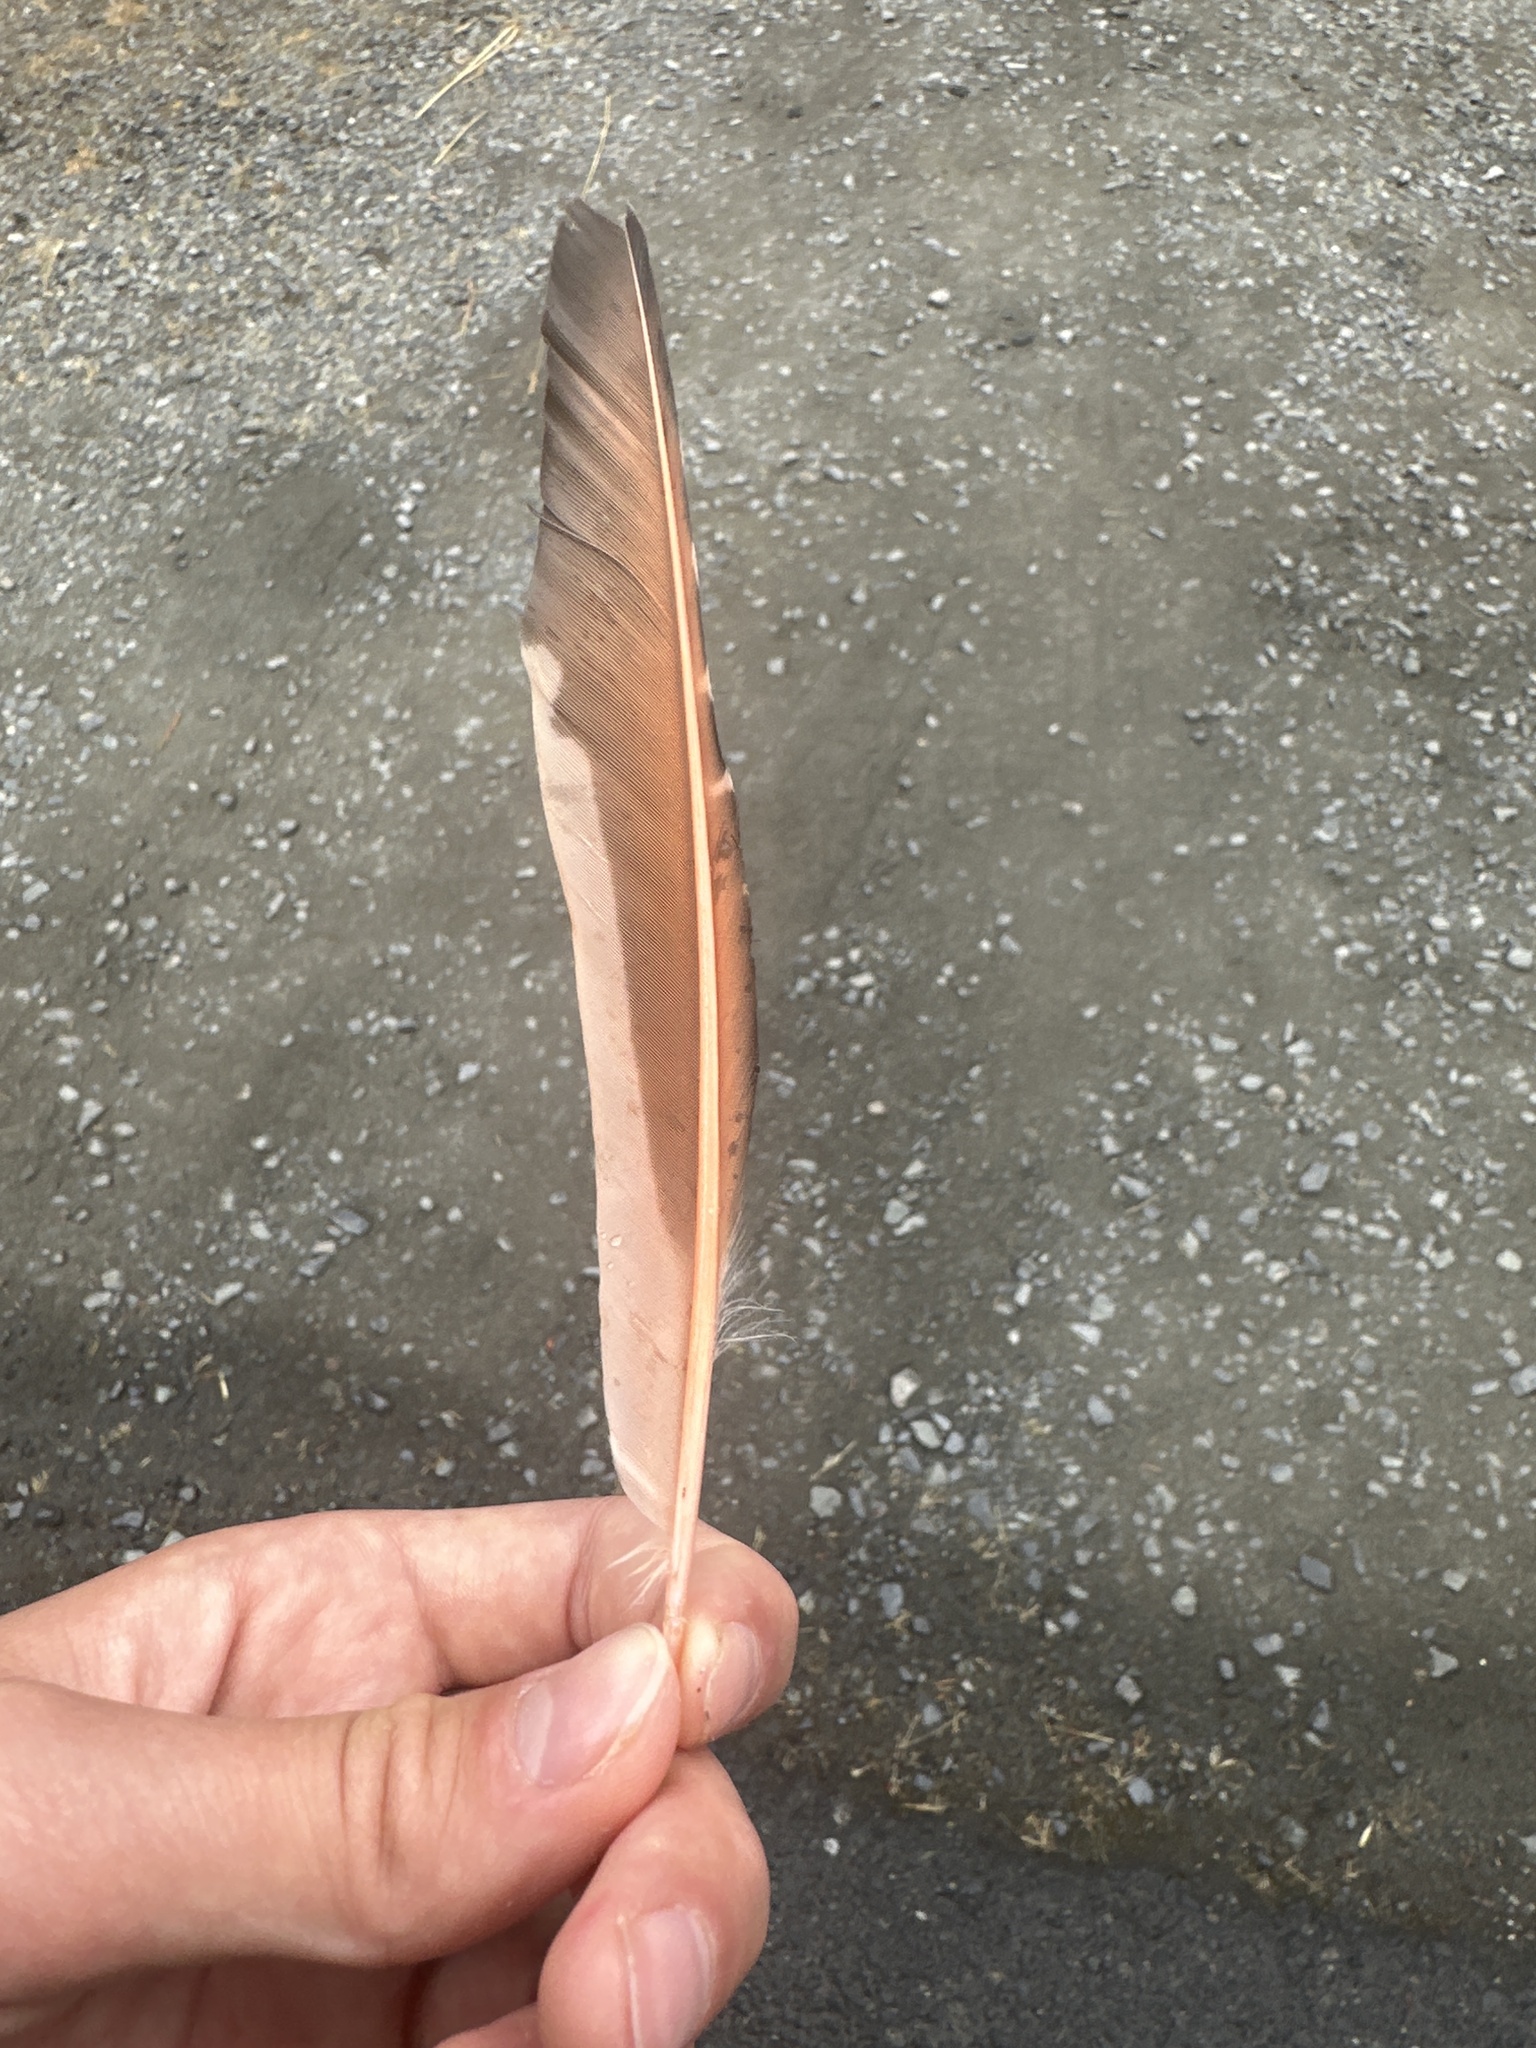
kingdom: Animalia
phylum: Chordata
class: Aves
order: Piciformes
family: Picidae
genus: Colaptes
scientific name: Colaptes auratus
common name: Northern flicker
